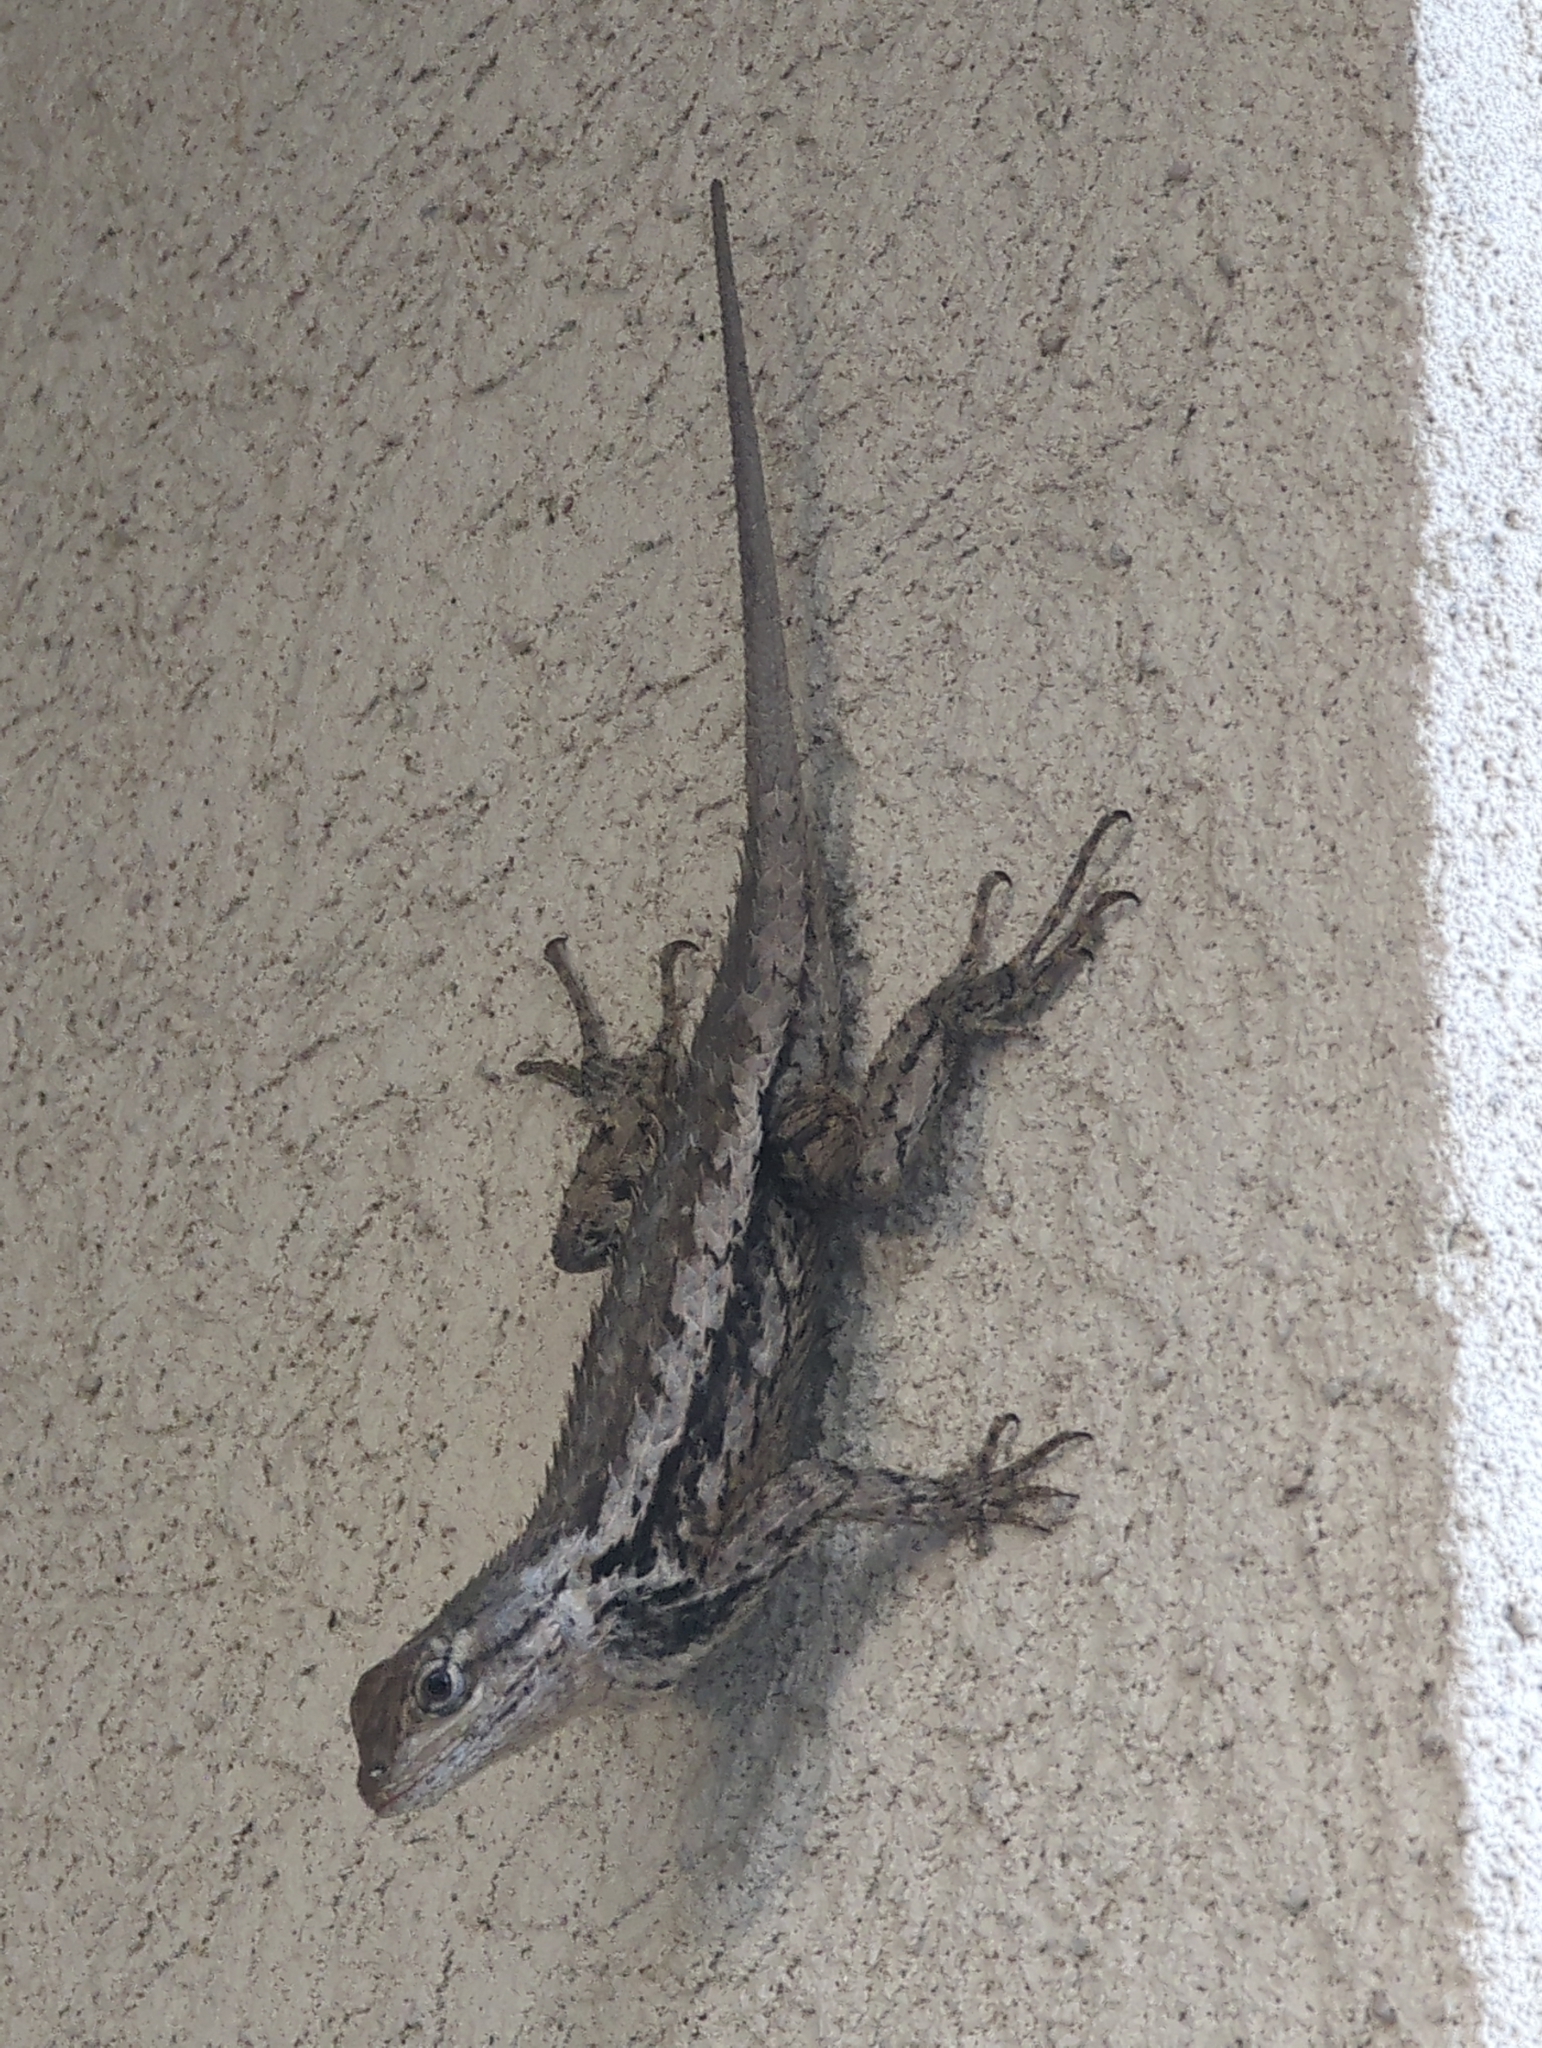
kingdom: Animalia
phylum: Chordata
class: Squamata
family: Phrynosomatidae
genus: Sceloporus
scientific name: Sceloporus olivaceus
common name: Texas spiny lizard
